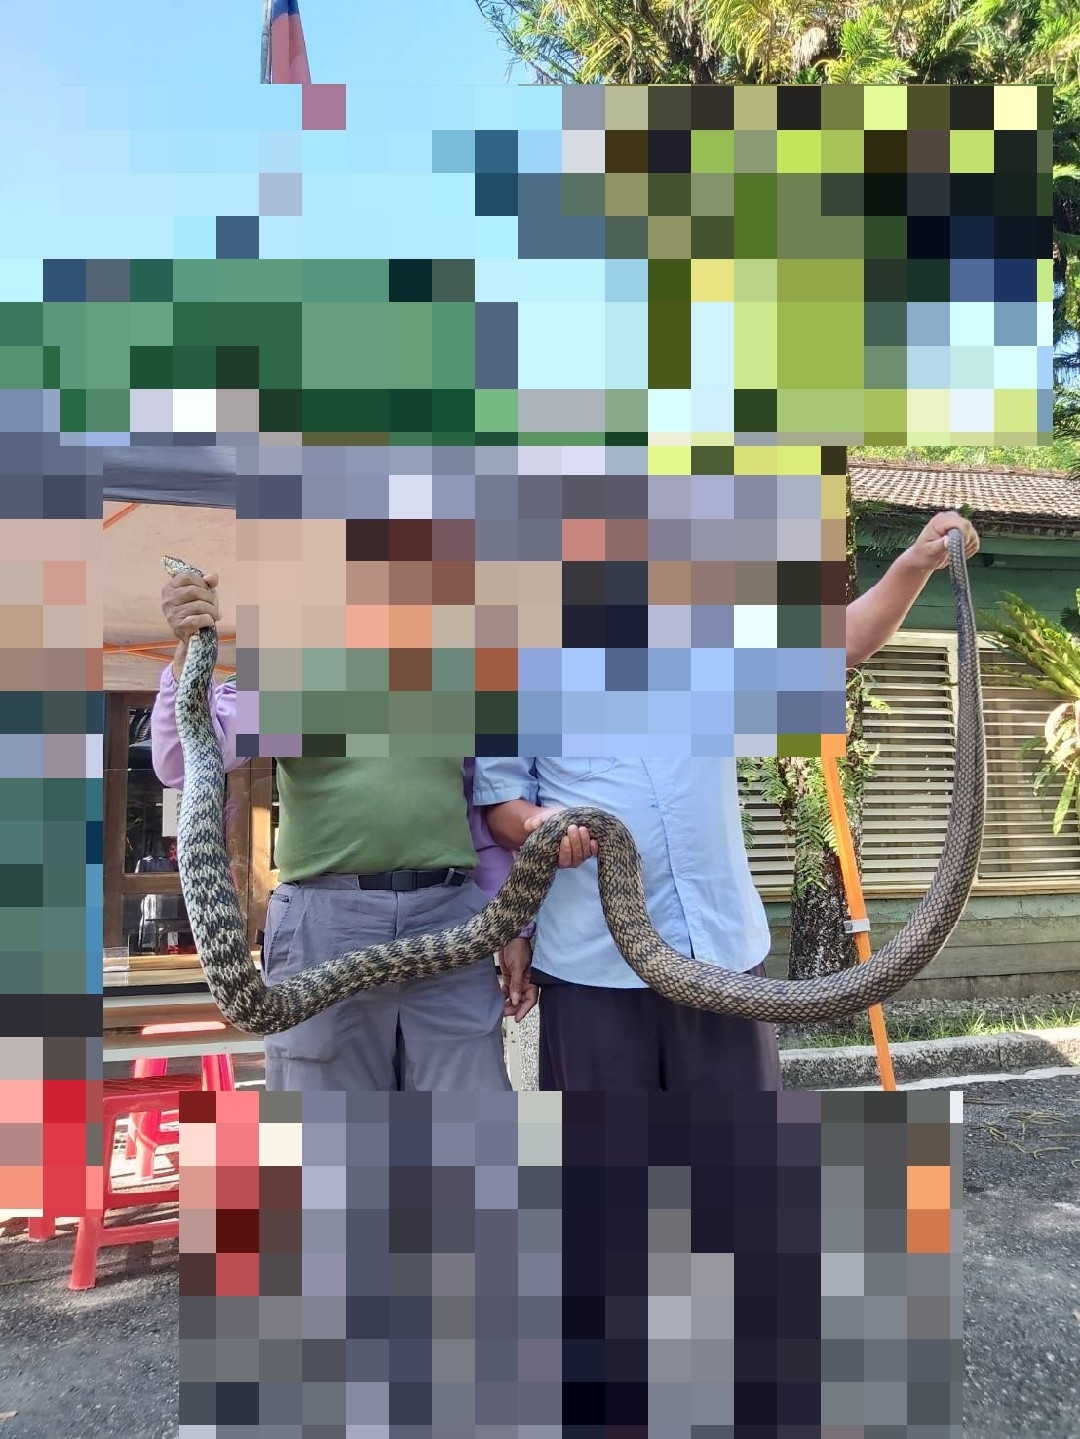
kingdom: Animalia
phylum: Chordata
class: Squamata
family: Colubridae
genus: Elaphe
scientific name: Elaphe carinata
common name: Taiwan stink snake
